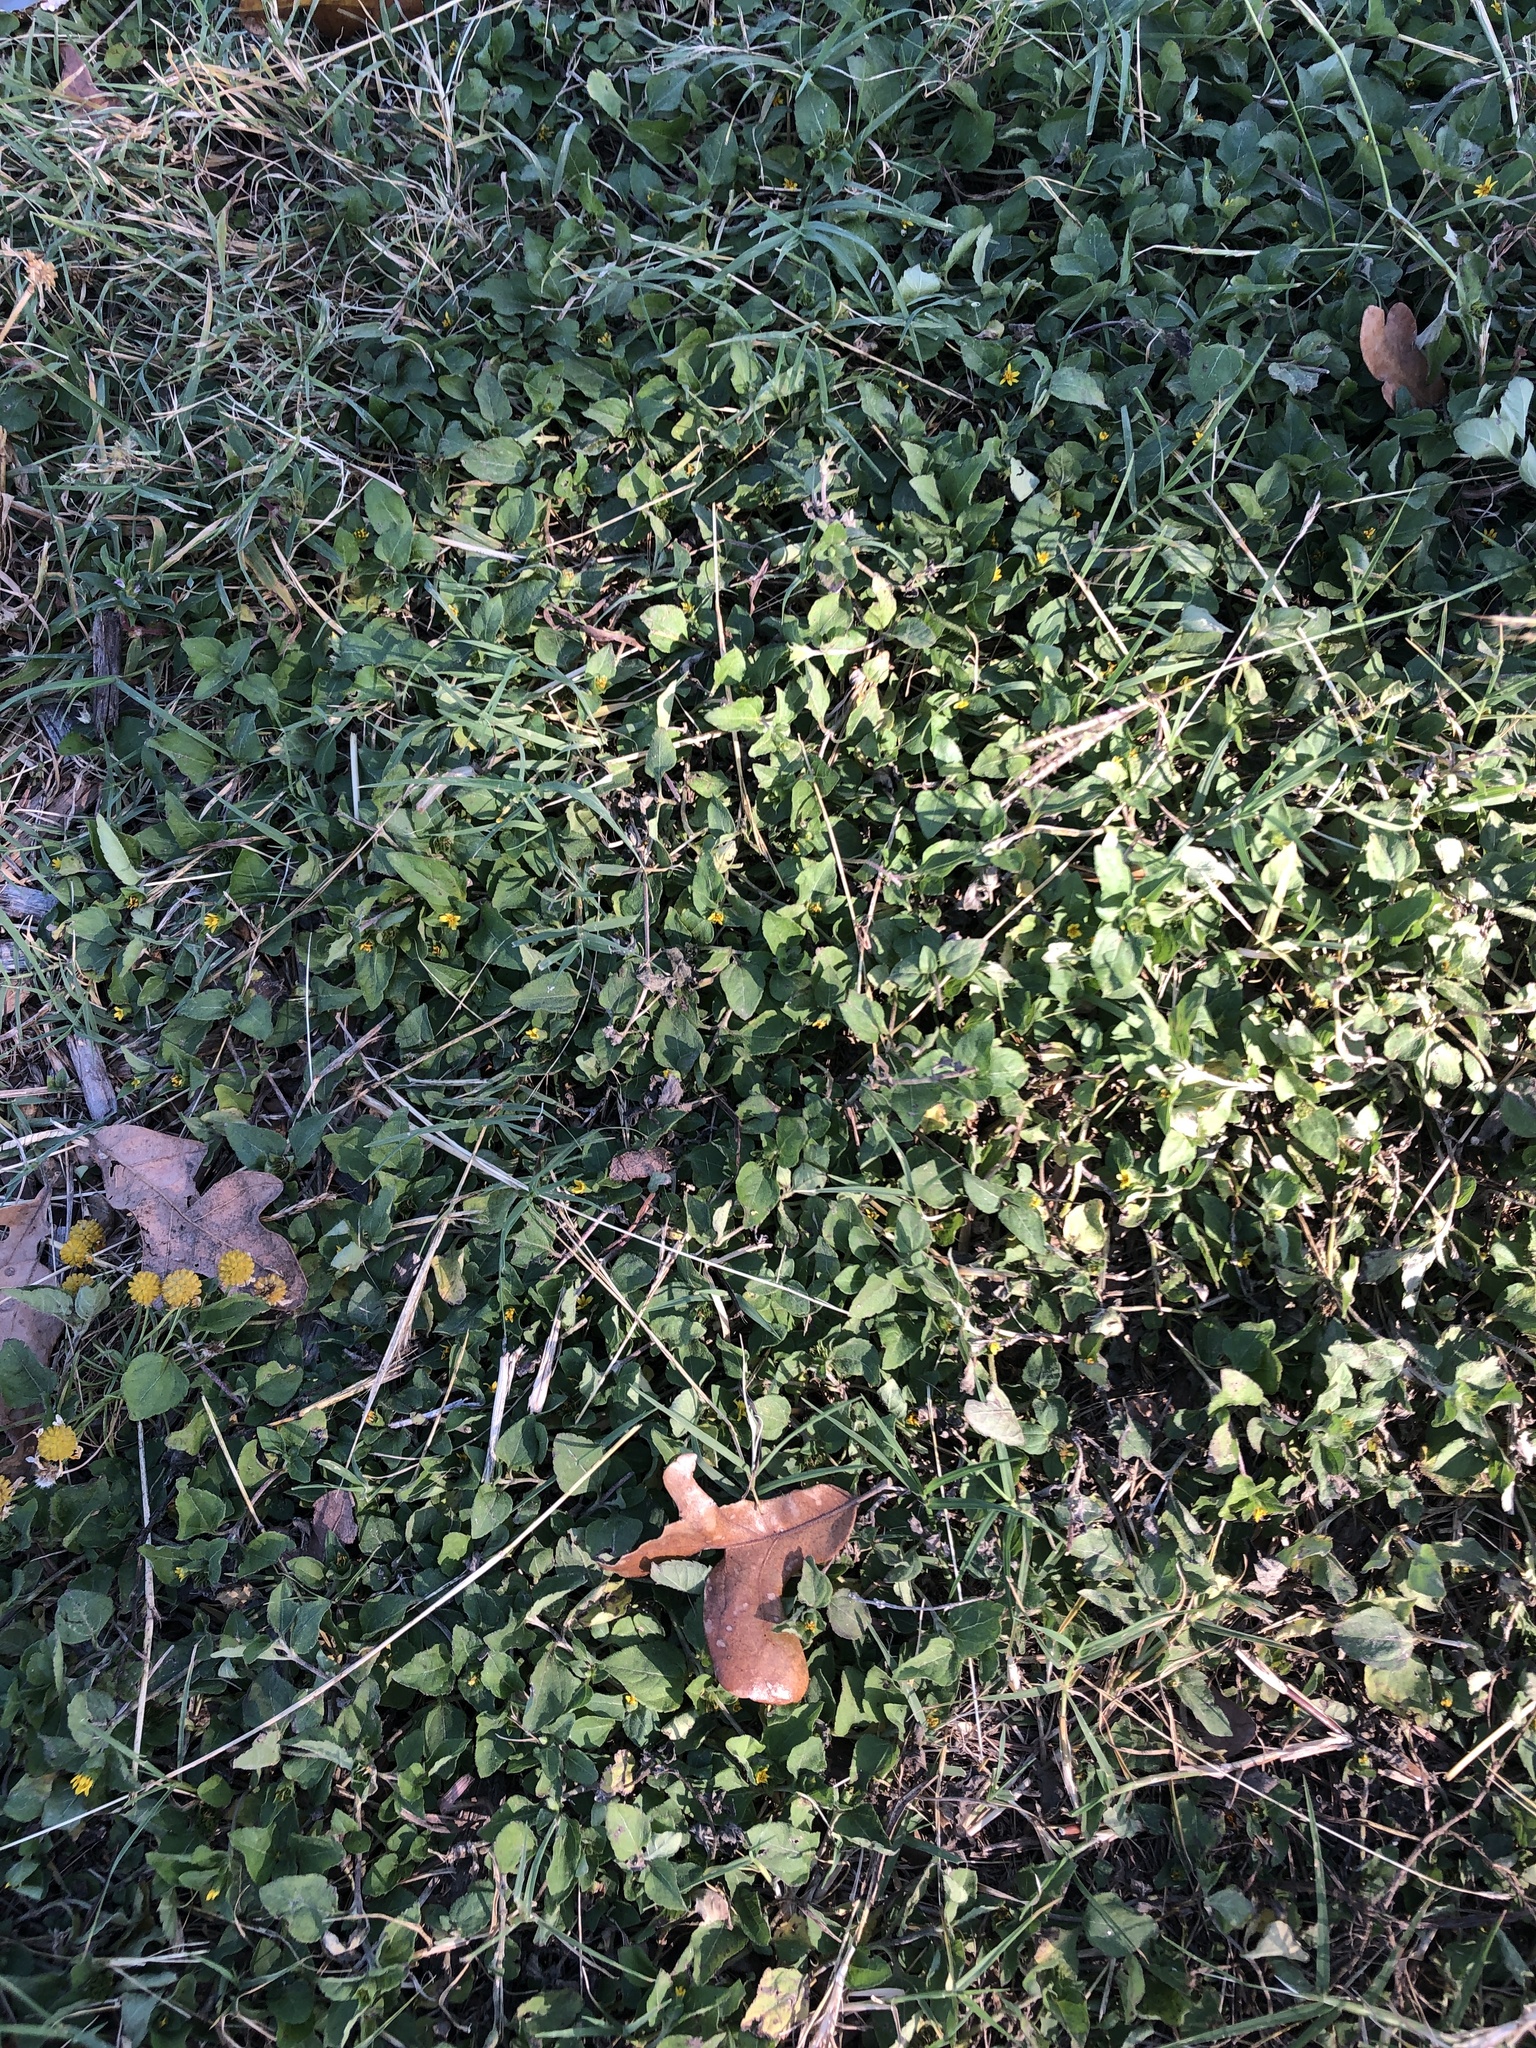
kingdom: Plantae
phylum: Tracheophyta
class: Magnoliopsida
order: Asterales
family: Asteraceae
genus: Calyptocarpus
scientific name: Calyptocarpus vialis
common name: Straggler daisy
